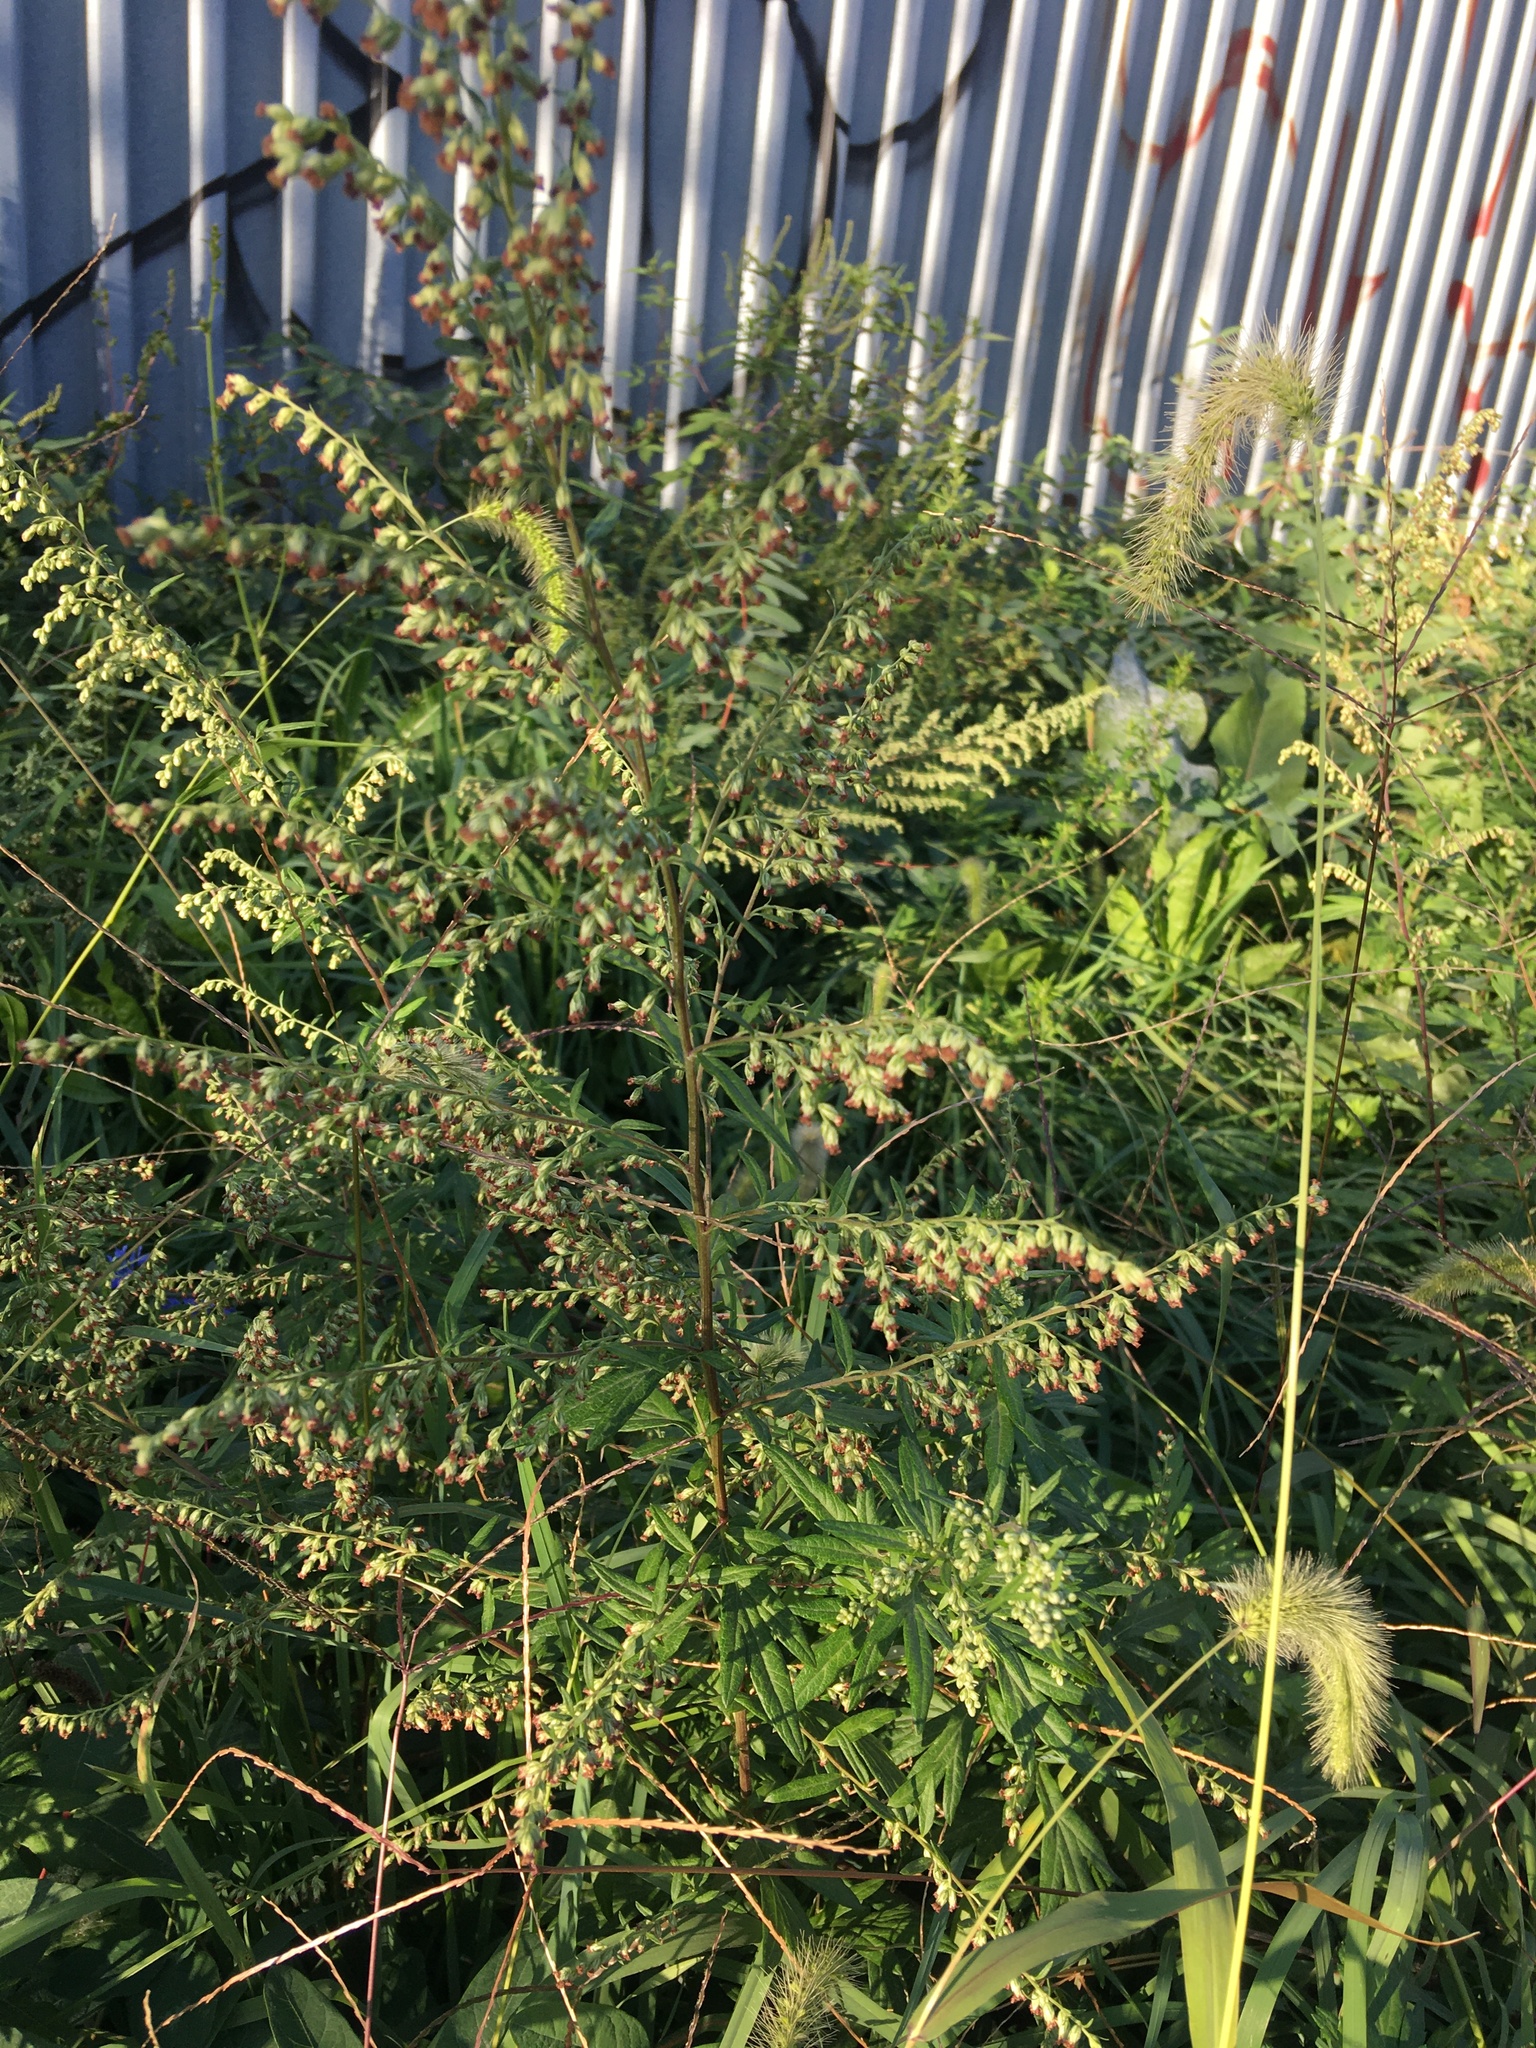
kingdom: Plantae
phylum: Tracheophyta
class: Magnoliopsida
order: Asterales
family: Asteraceae
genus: Artemisia
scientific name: Artemisia vulgaris
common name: Mugwort
